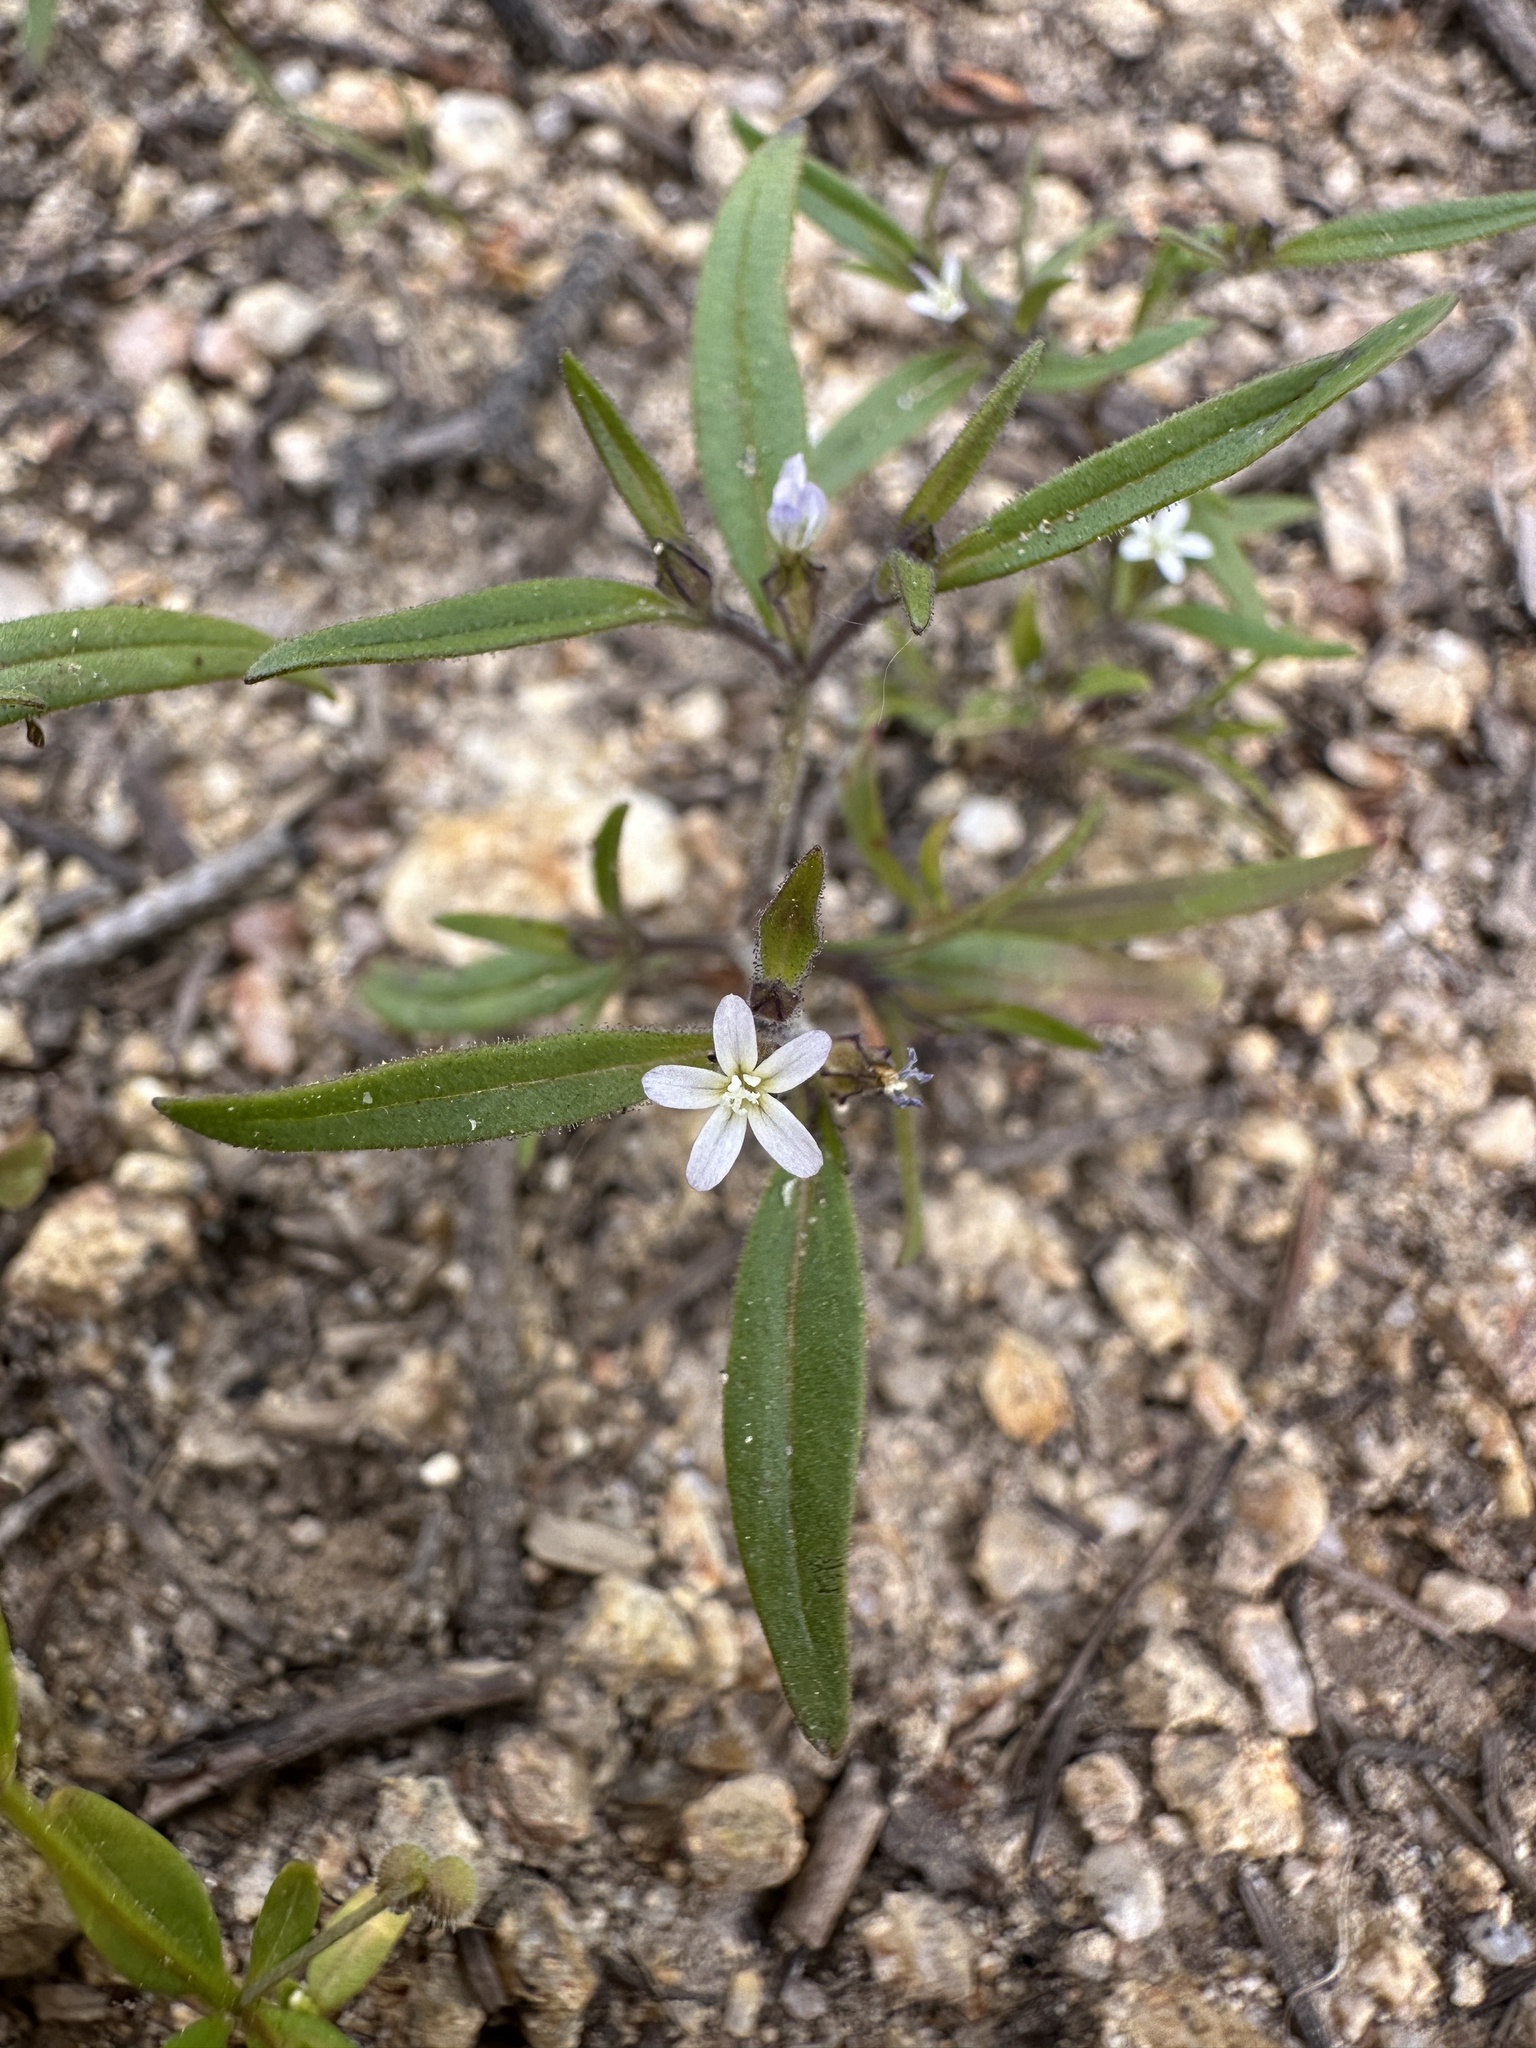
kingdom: Plantae
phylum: Tracheophyta
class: Magnoliopsida
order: Ericales
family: Polemoniaceae
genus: Collomia
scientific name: Collomia tenella
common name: Diffuse collomia
